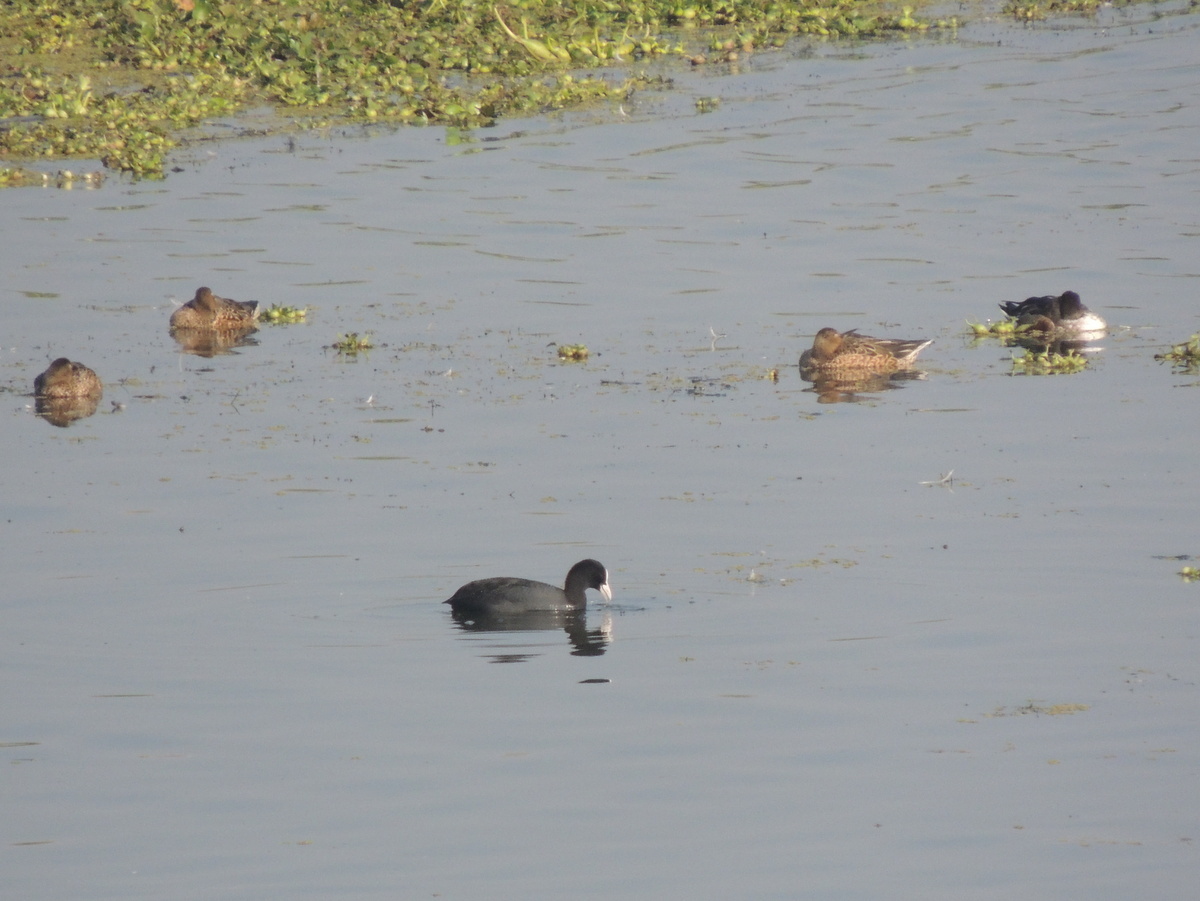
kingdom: Animalia
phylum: Chordata
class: Aves
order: Gruiformes
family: Rallidae
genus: Fulica
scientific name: Fulica atra
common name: Eurasian coot
